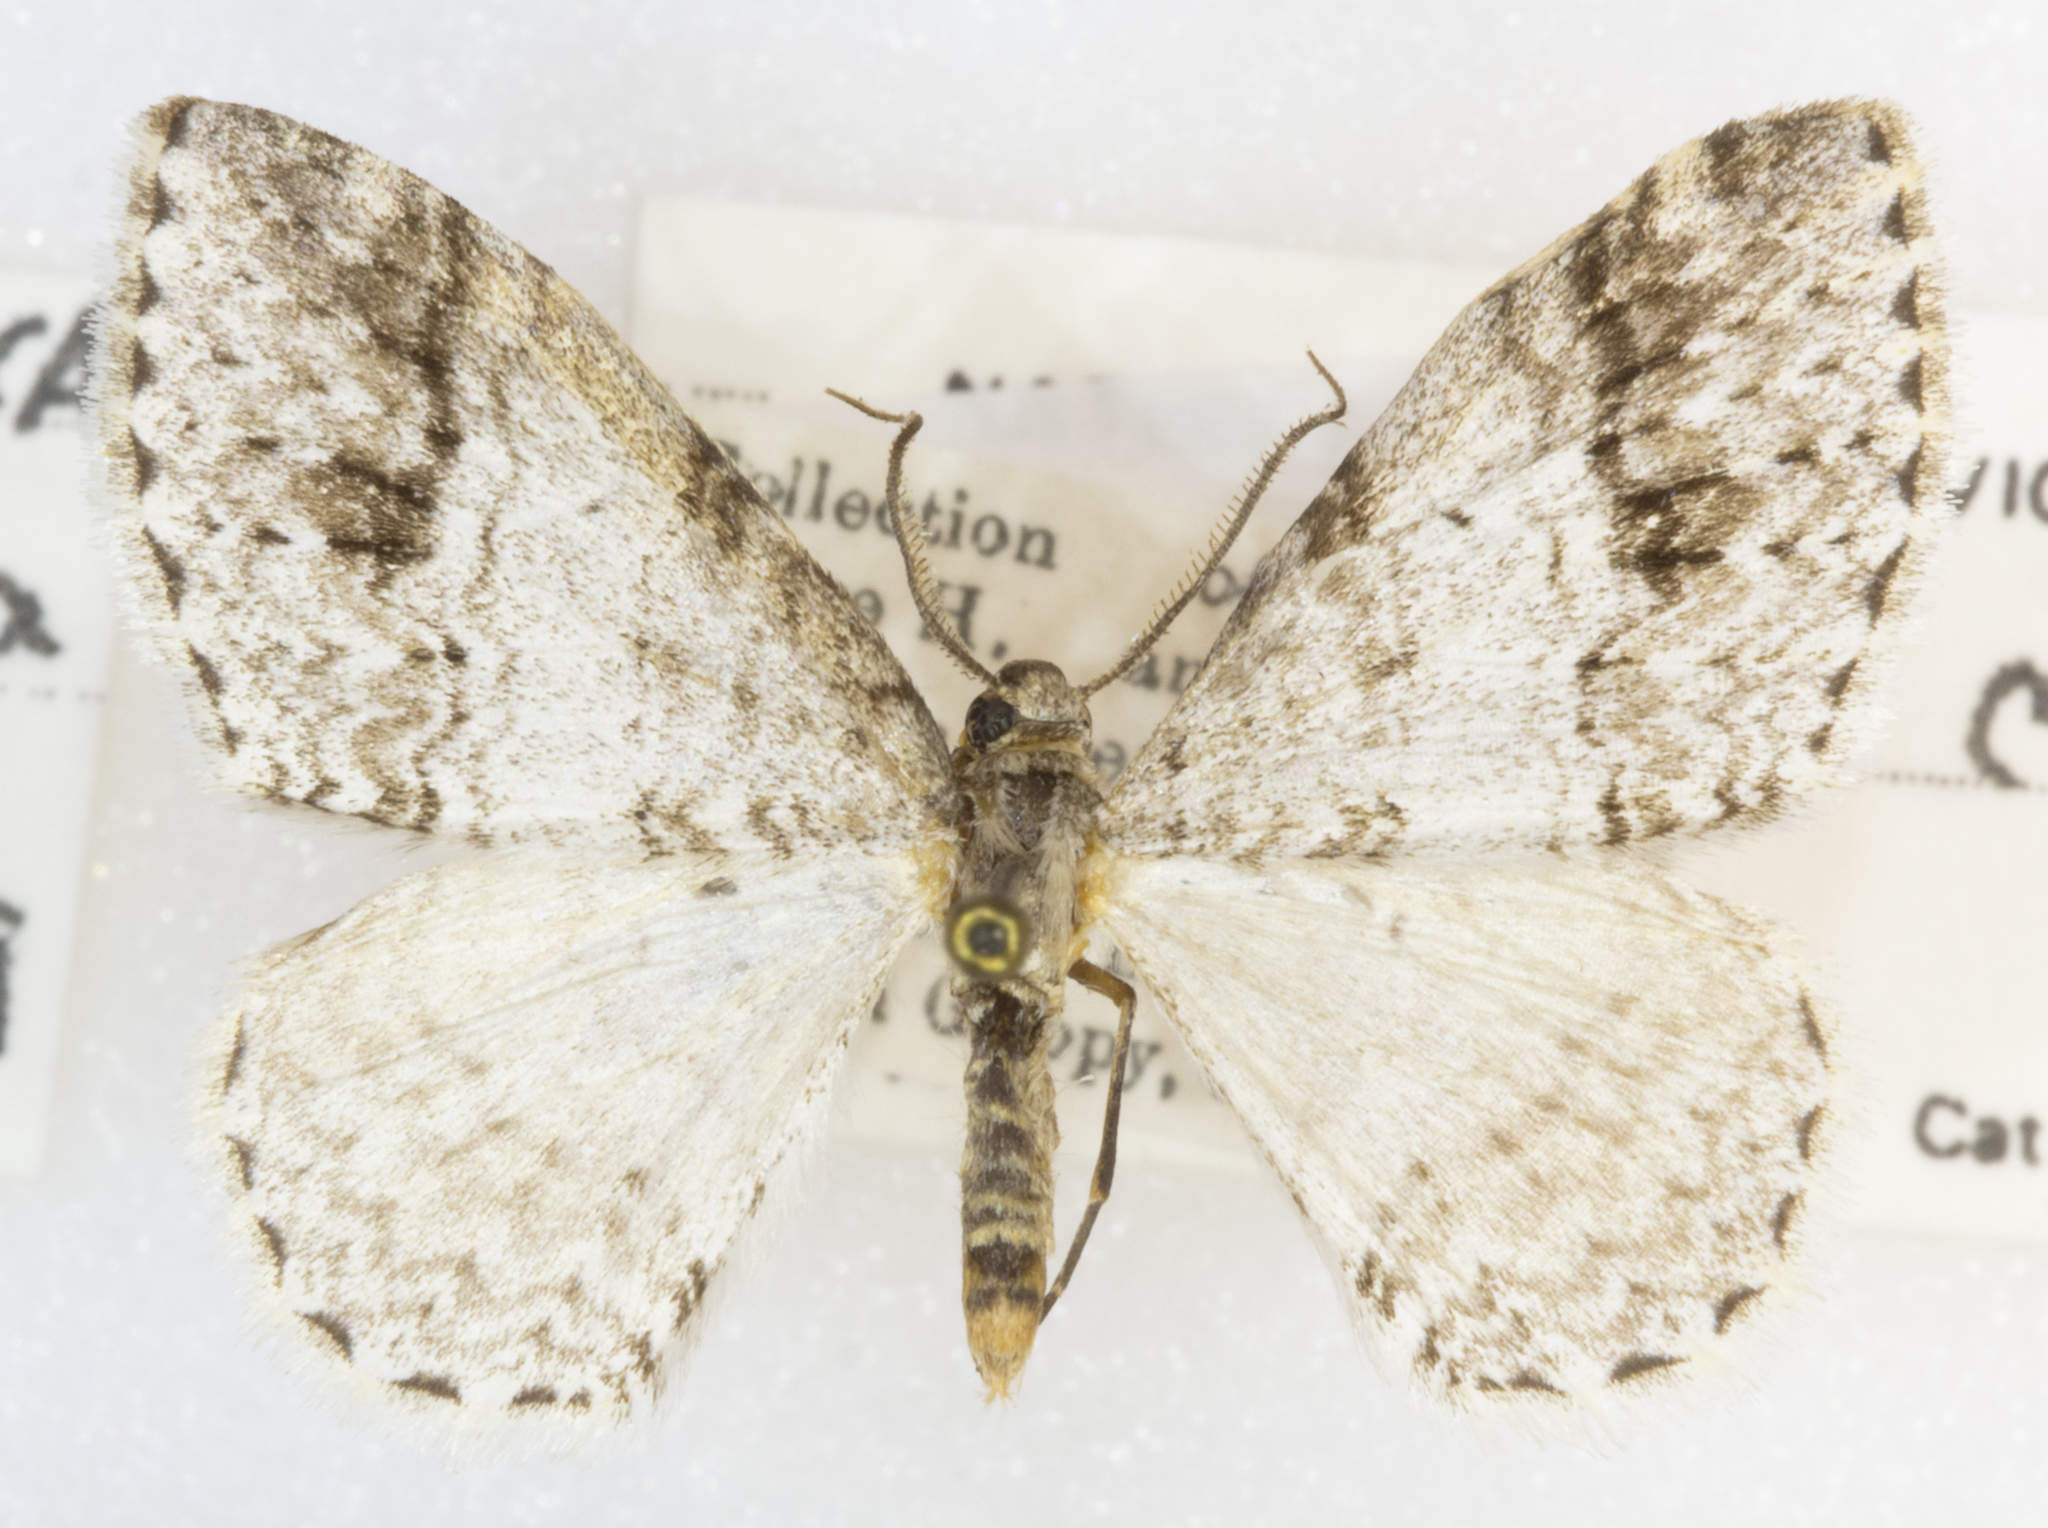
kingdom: Animalia
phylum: Arthropoda
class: Insecta
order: Lepidoptera
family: Geometridae
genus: Venusia
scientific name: Venusia cambrica
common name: Welsh wave
